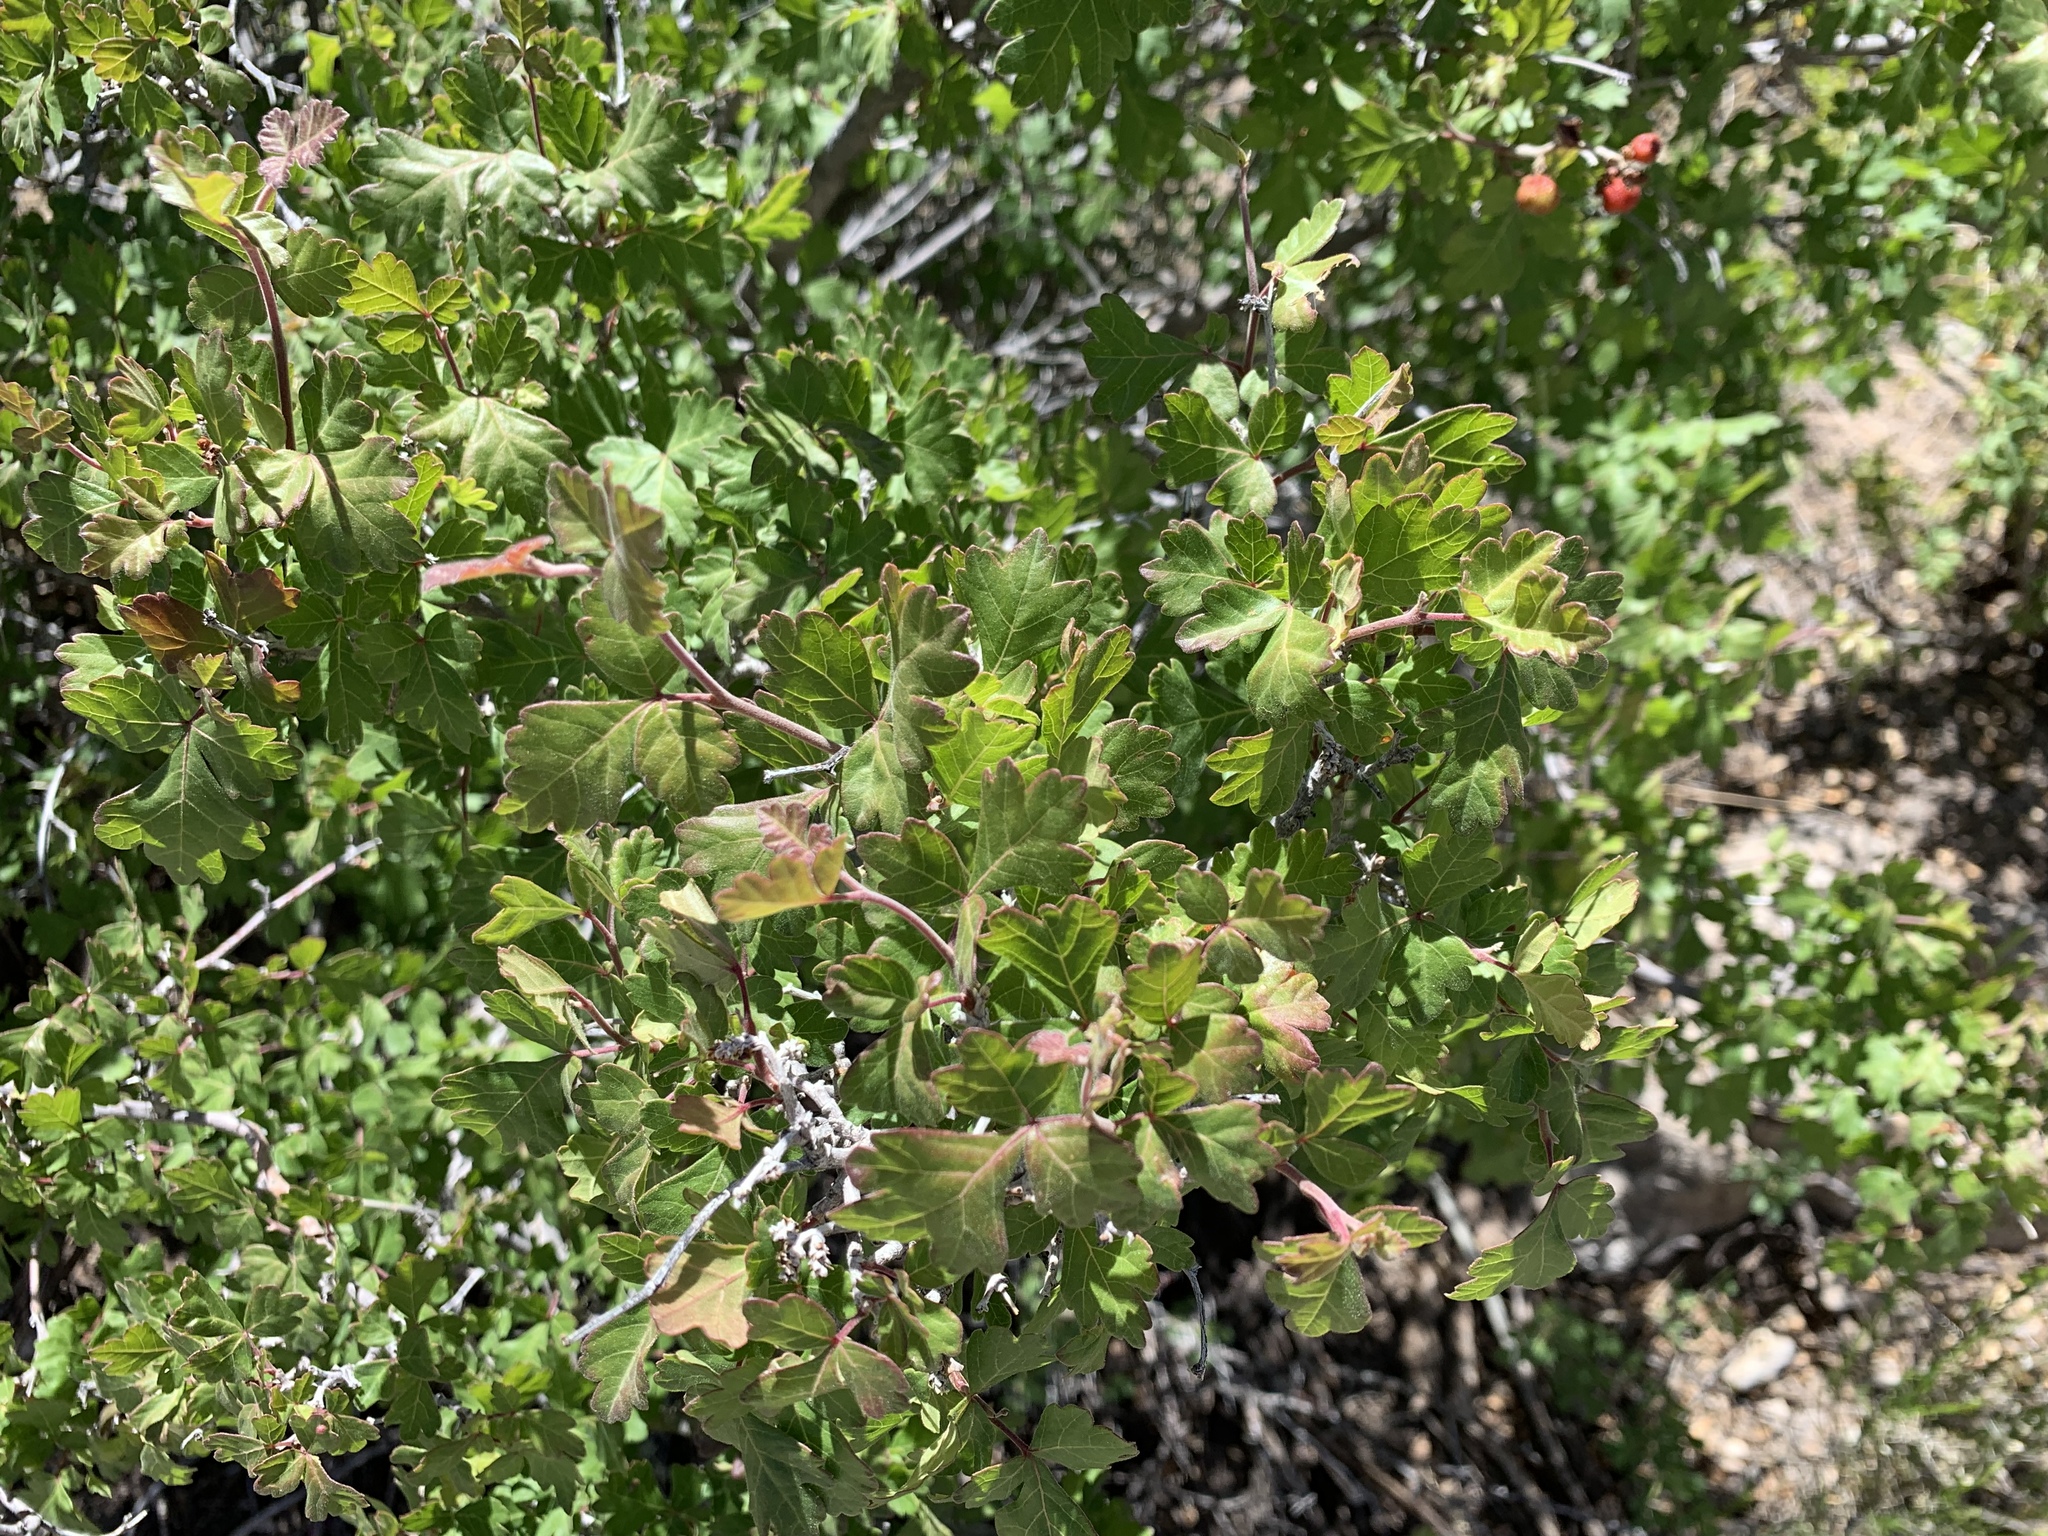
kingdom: Plantae
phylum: Tracheophyta
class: Magnoliopsida
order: Sapindales
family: Anacardiaceae
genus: Rhus
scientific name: Rhus aromatica
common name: Aromatic sumac
